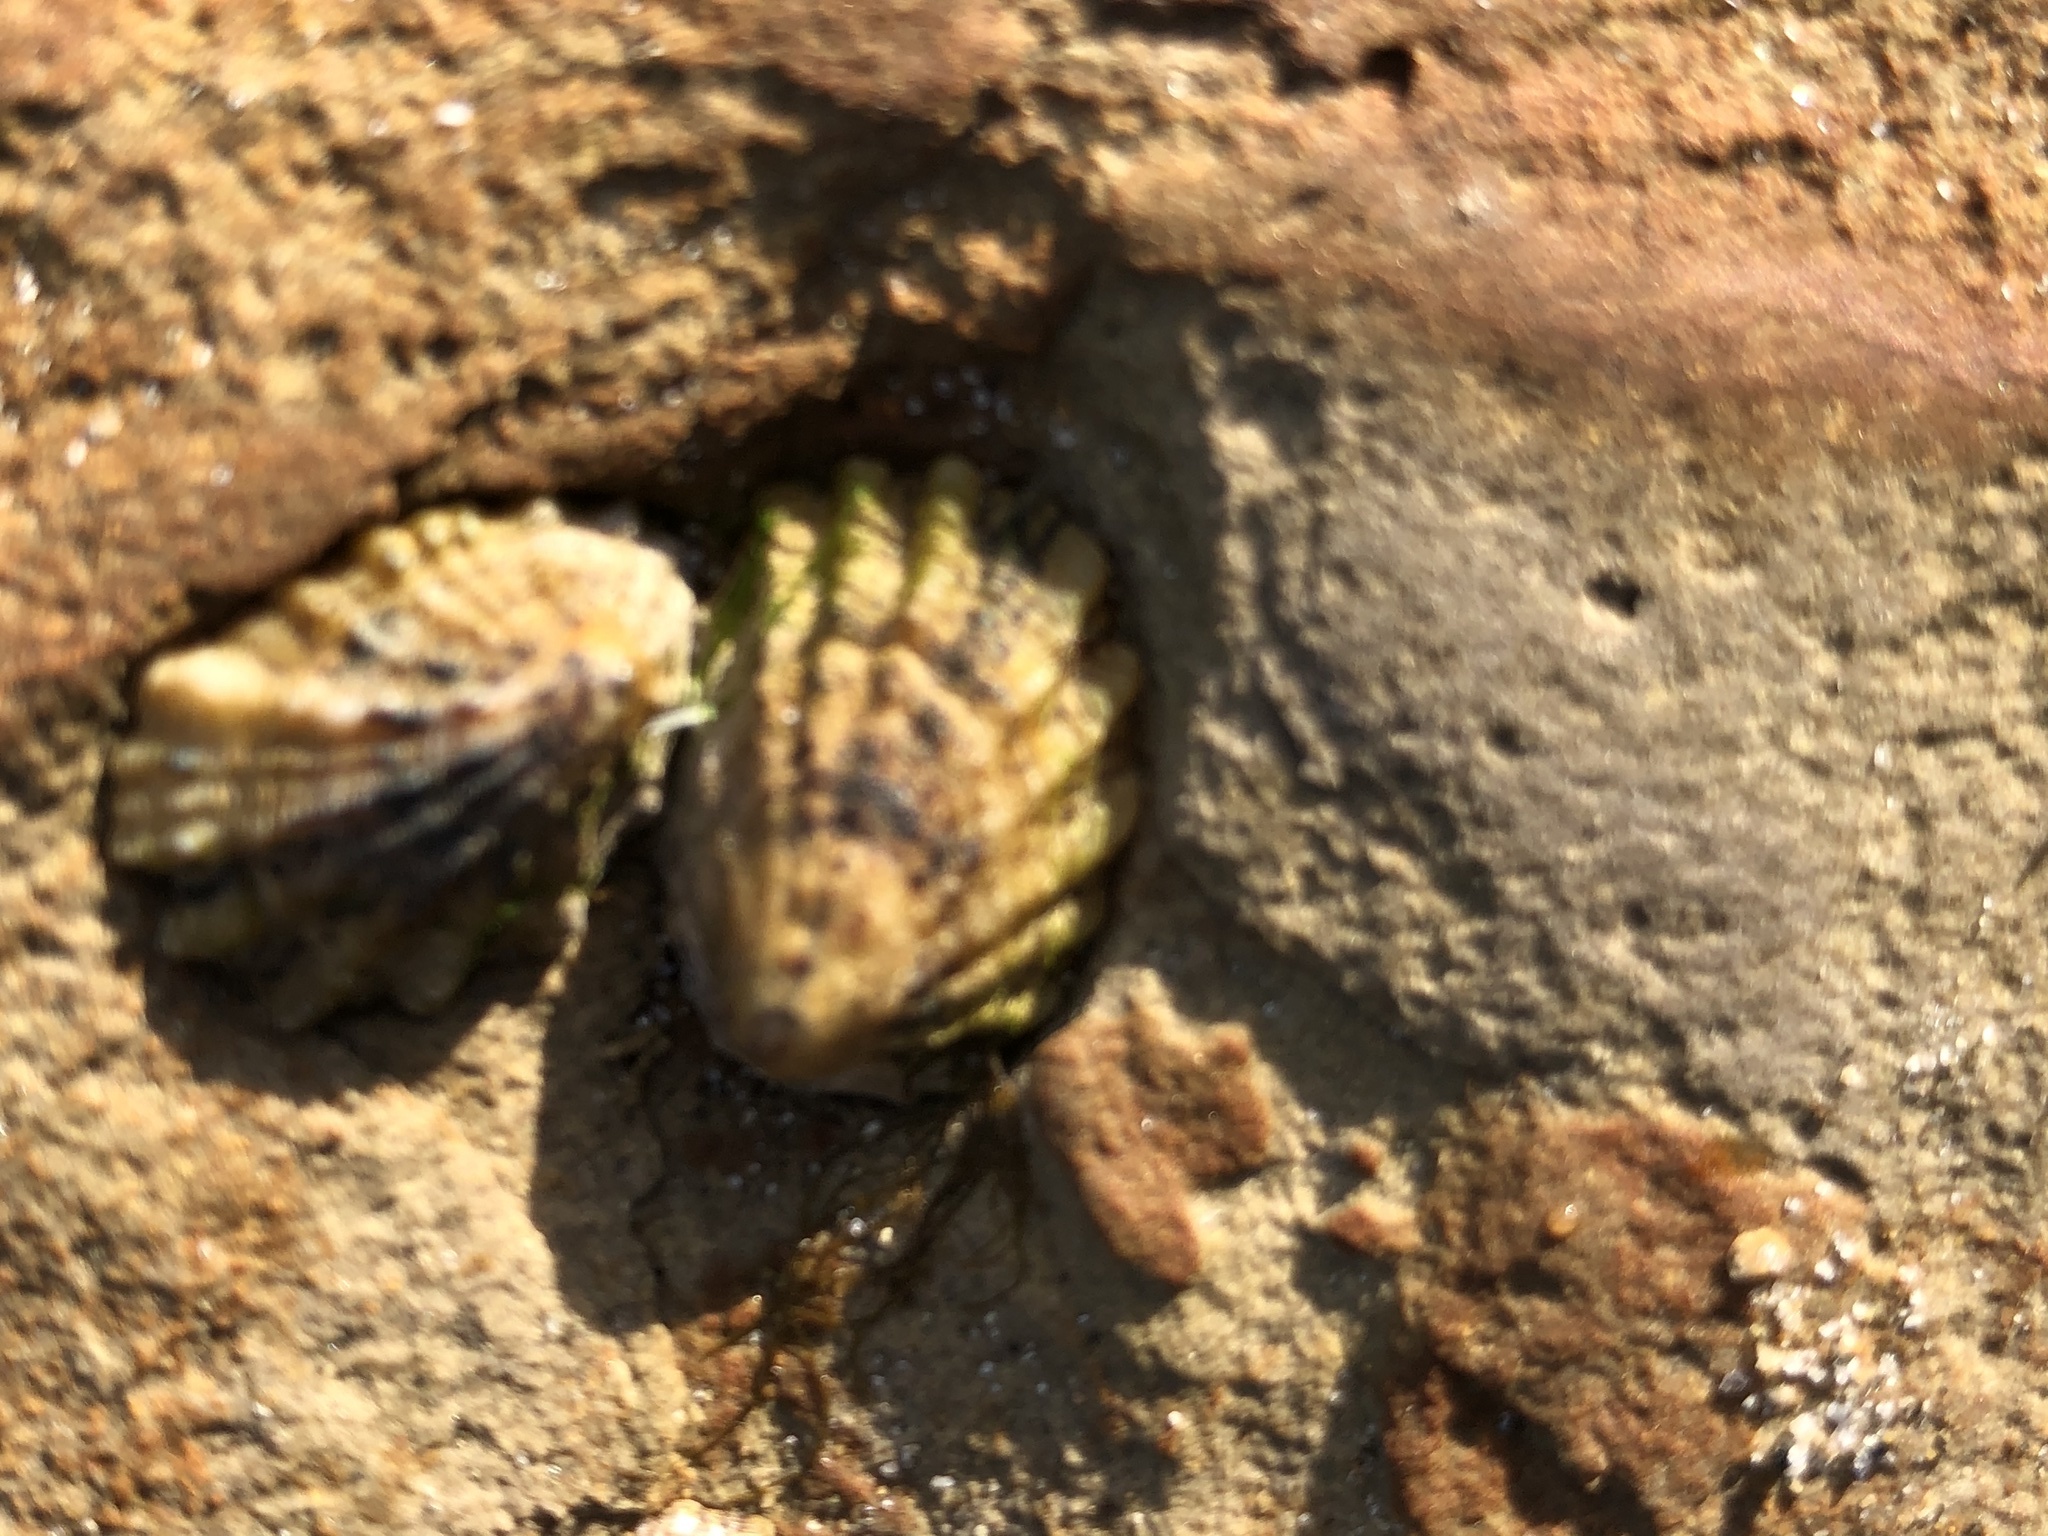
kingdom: Animalia
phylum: Mollusca
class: Gastropoda
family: Lottiidae
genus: Lottia
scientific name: Lottia scabra
